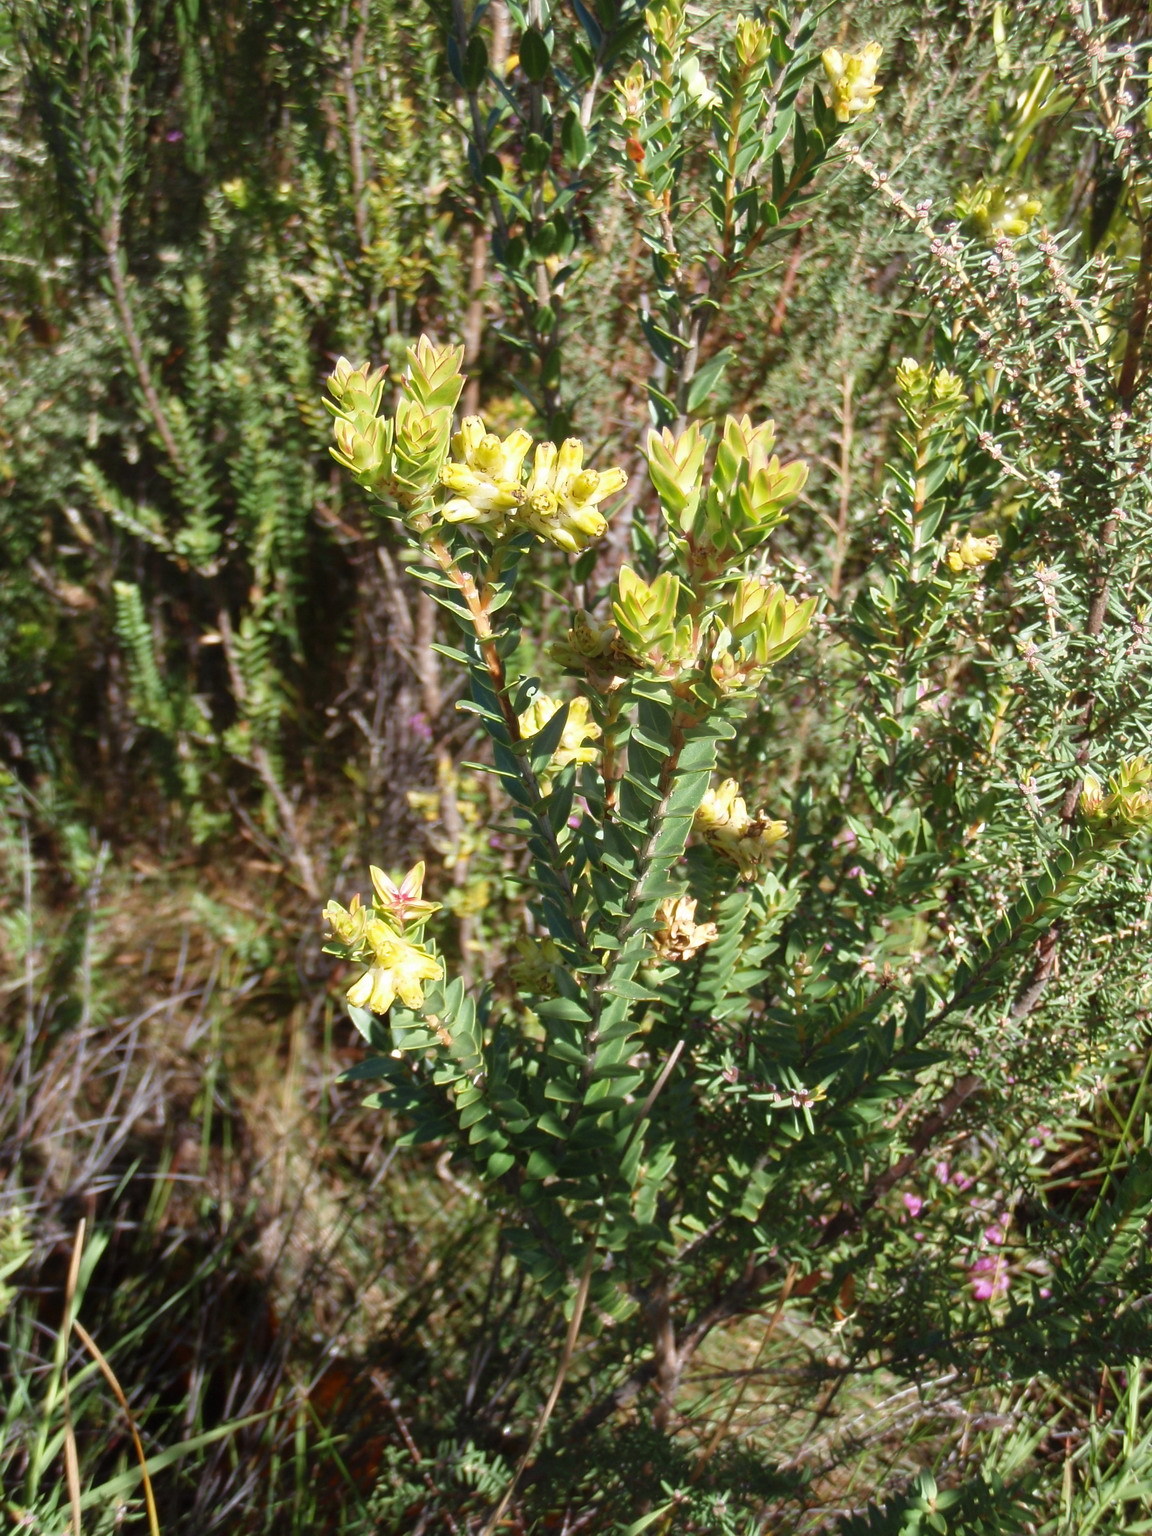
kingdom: Plantae
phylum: Tracheophyta
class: Magnoliopsida
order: Myrtales
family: Penaeaceae
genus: Penaea
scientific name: Penaea cneorum
